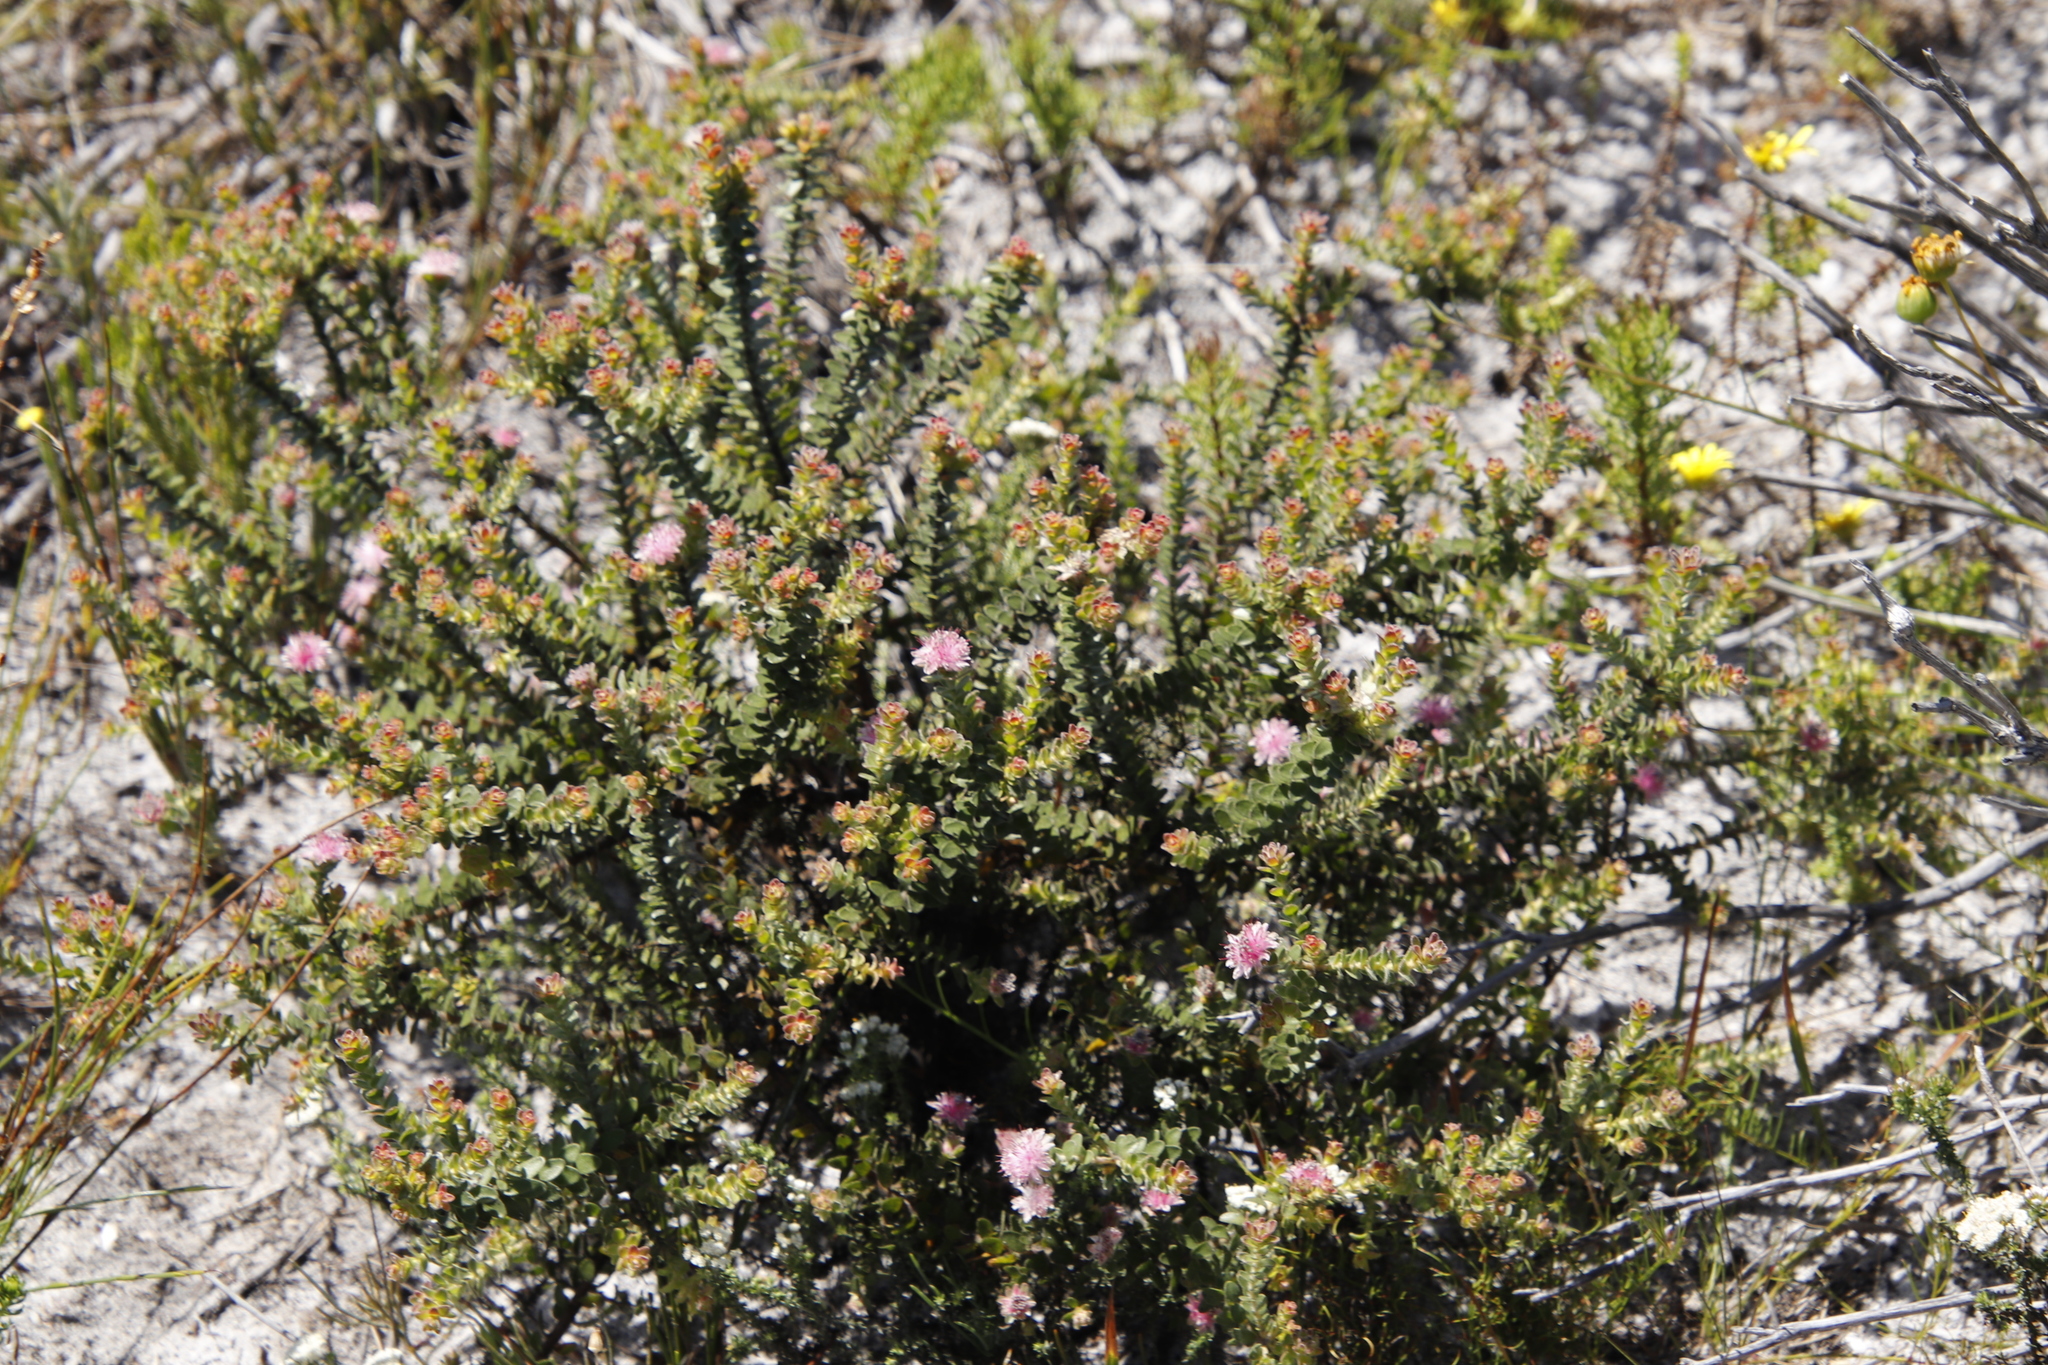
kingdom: Plantae
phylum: Tracheophyta
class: Magnoliopsida
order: Proteales
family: Proteaceae
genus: Diastella
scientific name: Diastella divaricata
